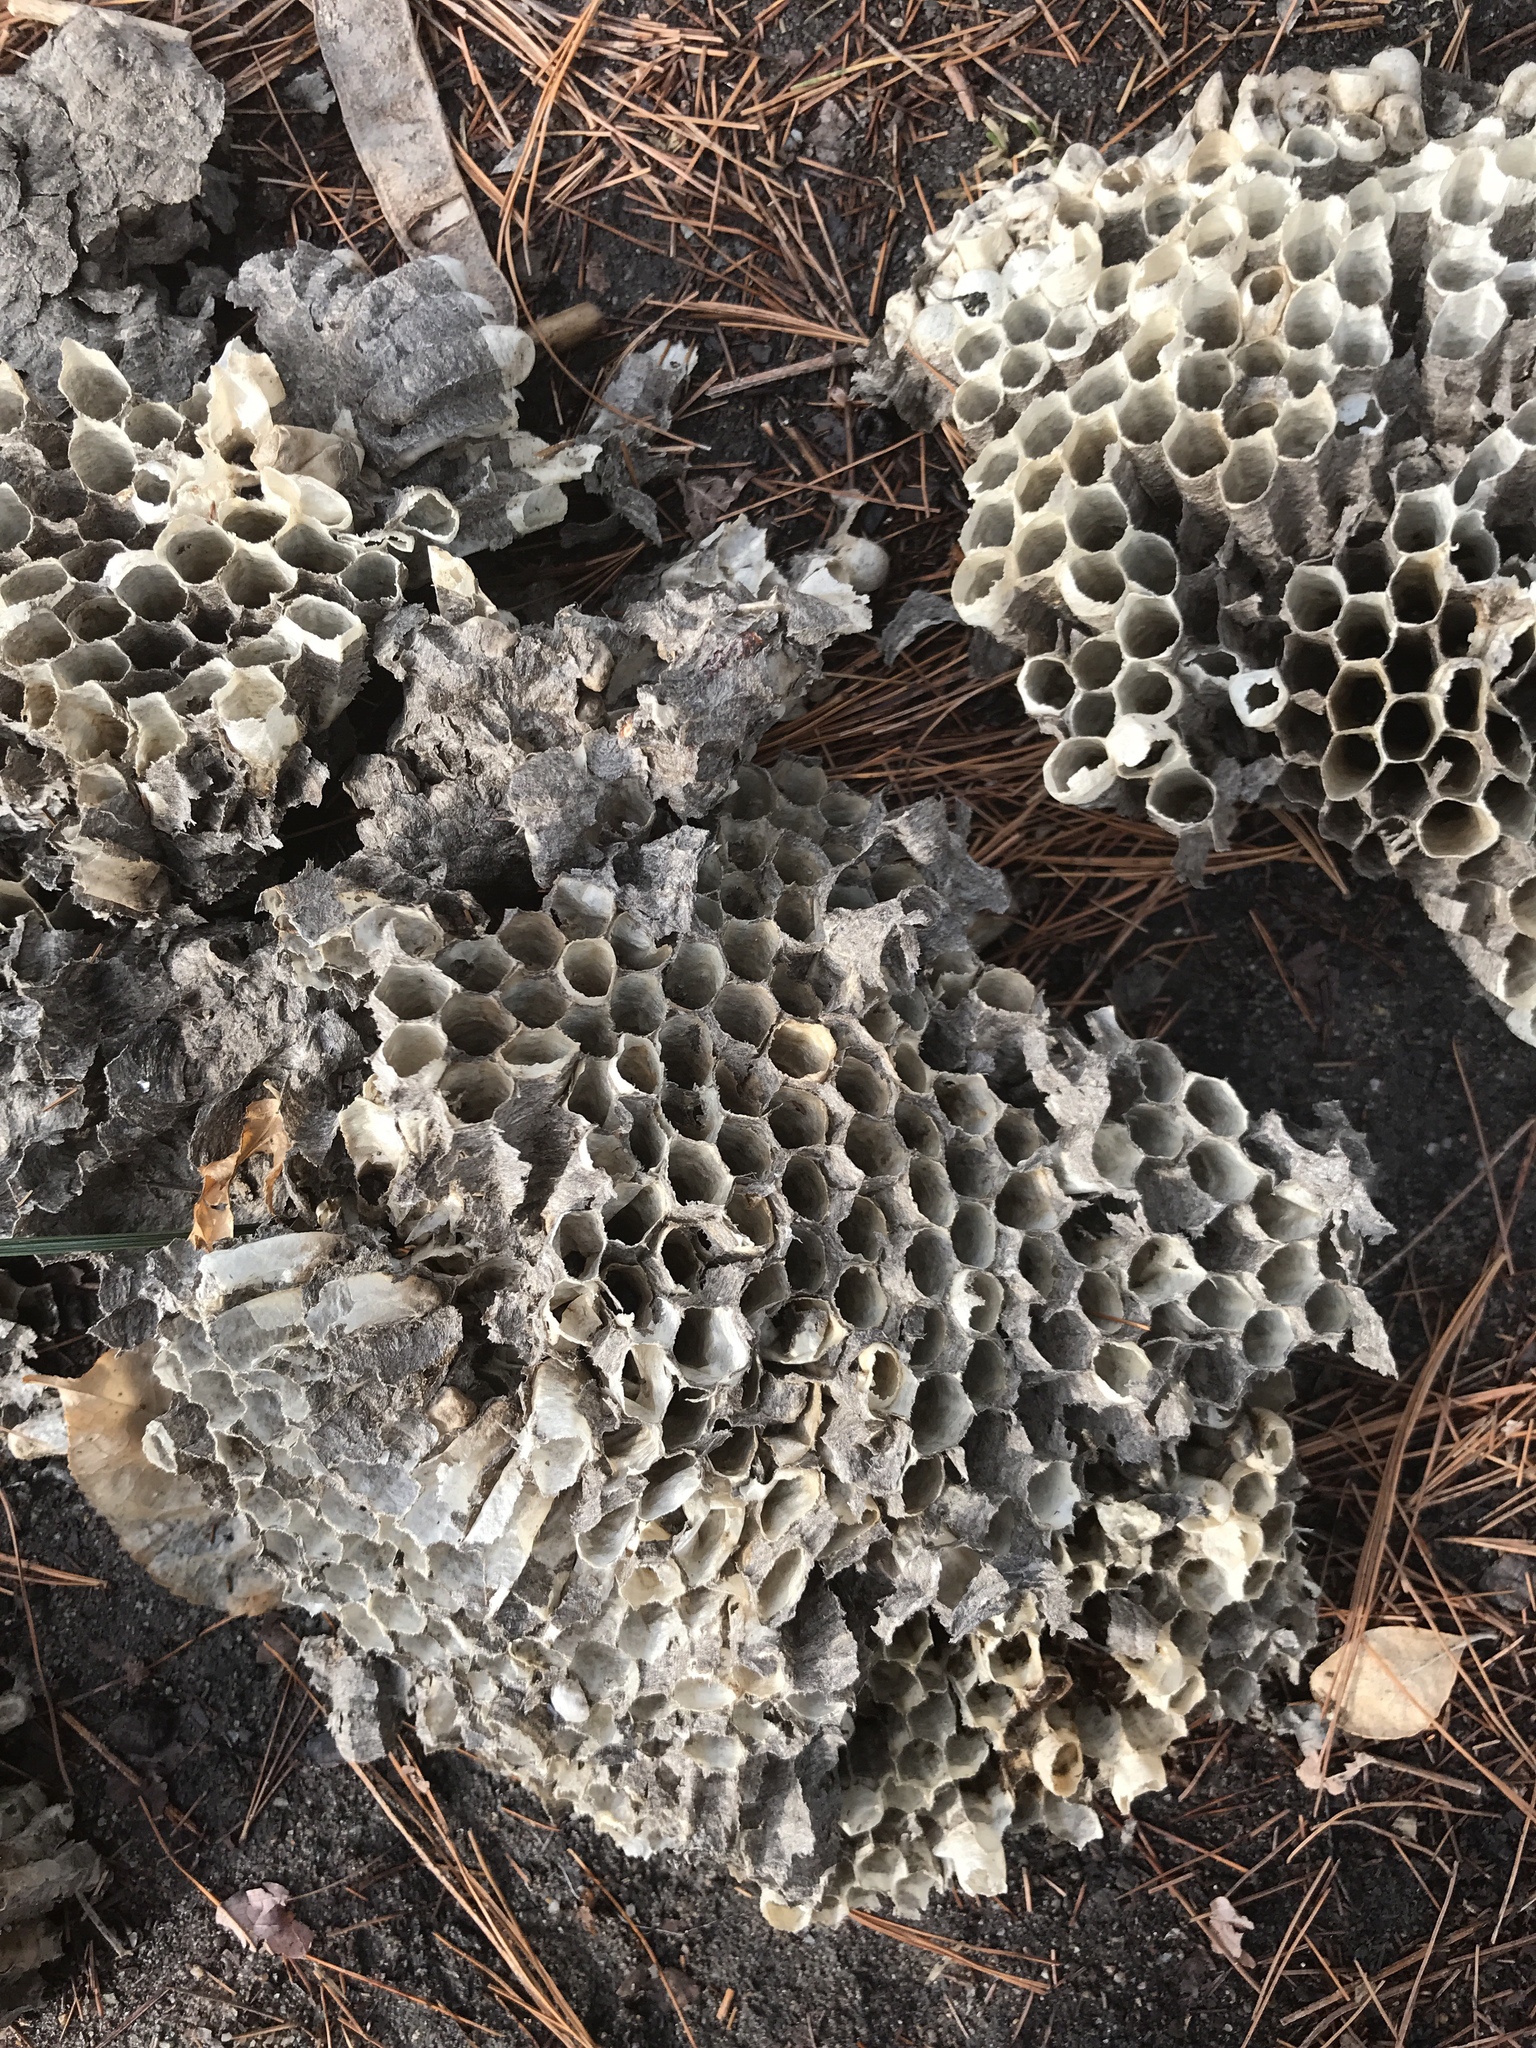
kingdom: Animalia
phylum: Arthropoda
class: Insecta
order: Hymenoptera
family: Eumenidae
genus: Polistes
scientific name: Polistes
